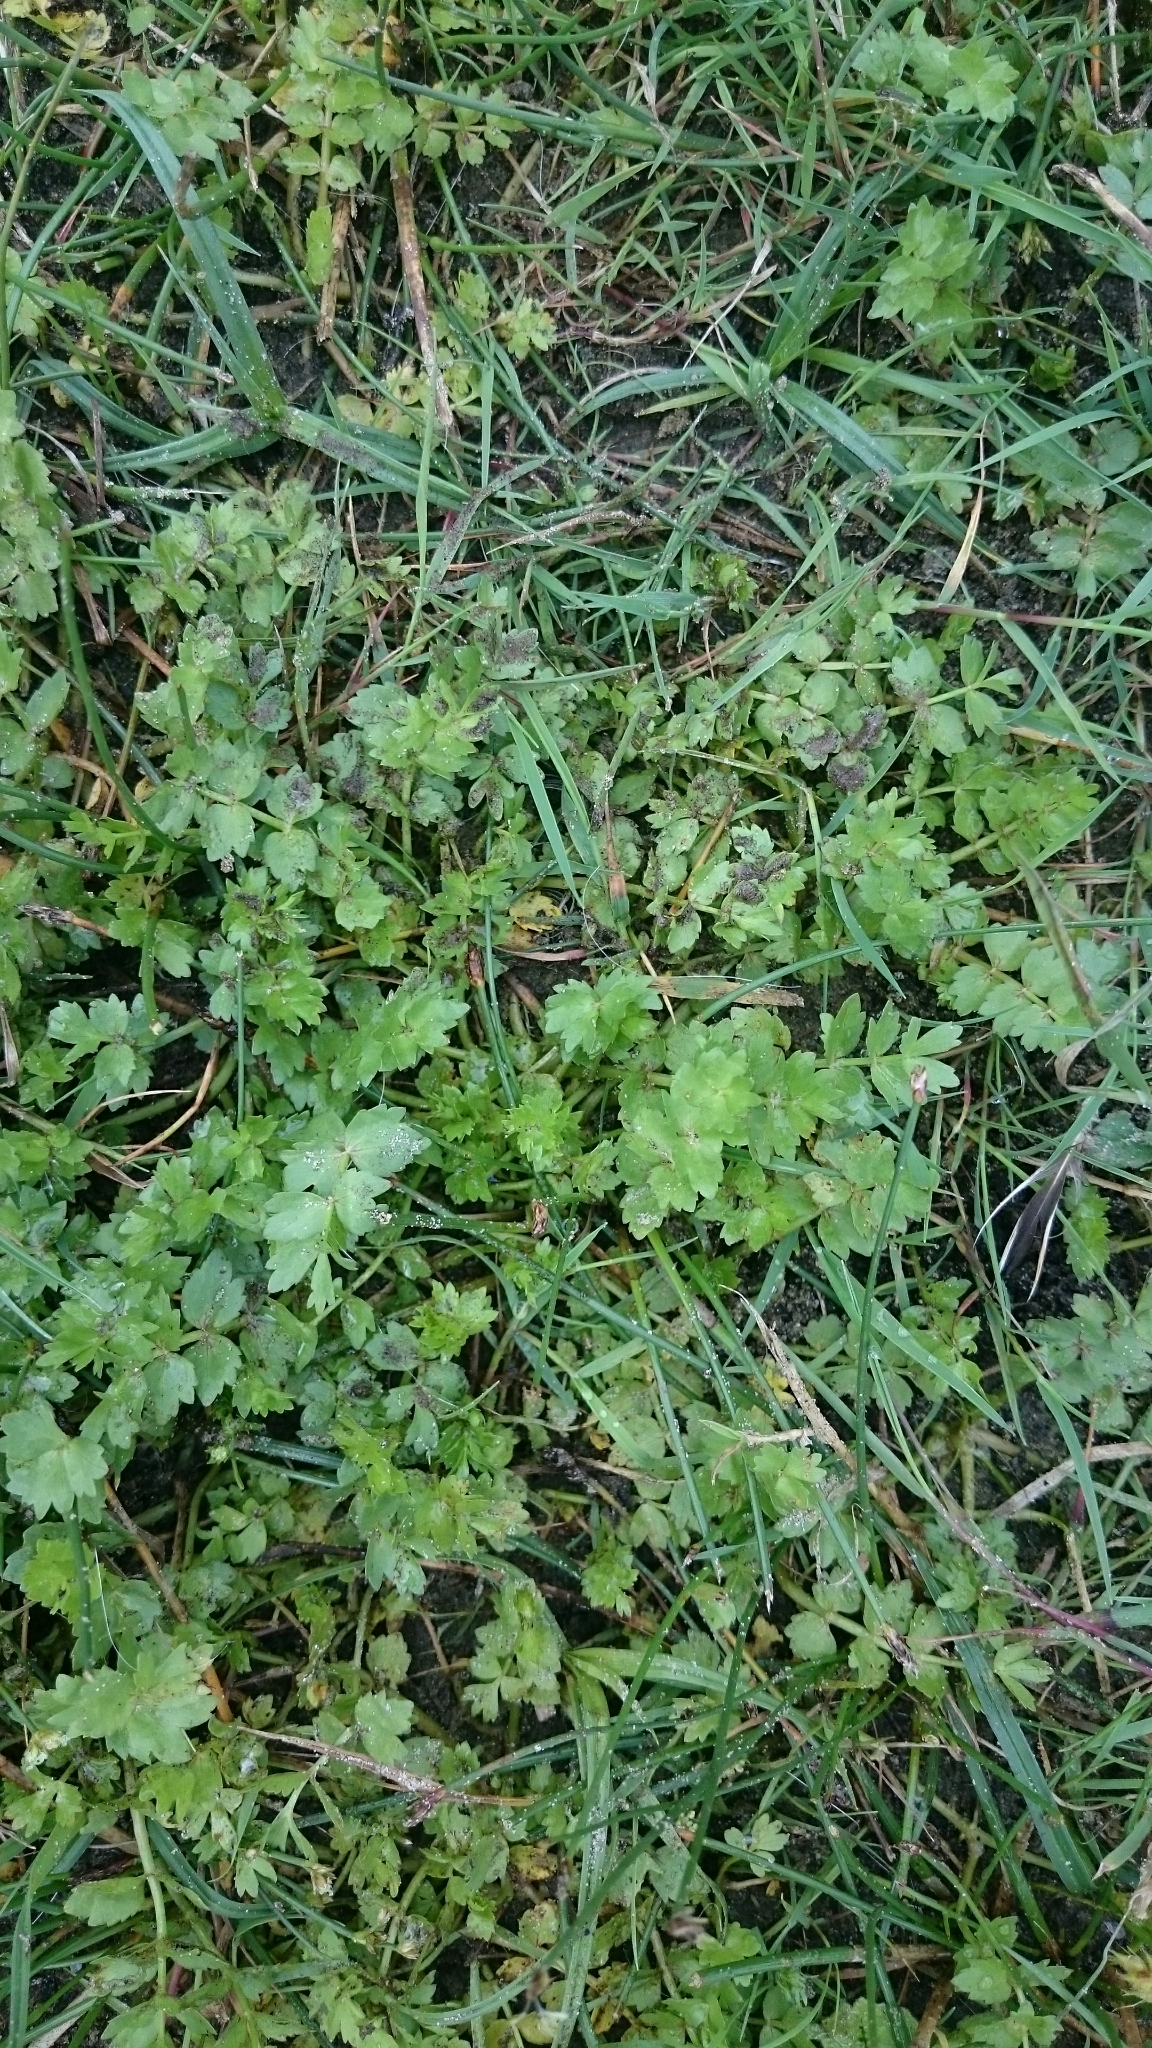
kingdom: Plantae
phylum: Tracheophyta
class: Magnoliopsida
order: Apiales
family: Apiaceae
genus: Helosciadium
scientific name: Helosciadium repens
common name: Creeping marshwort
